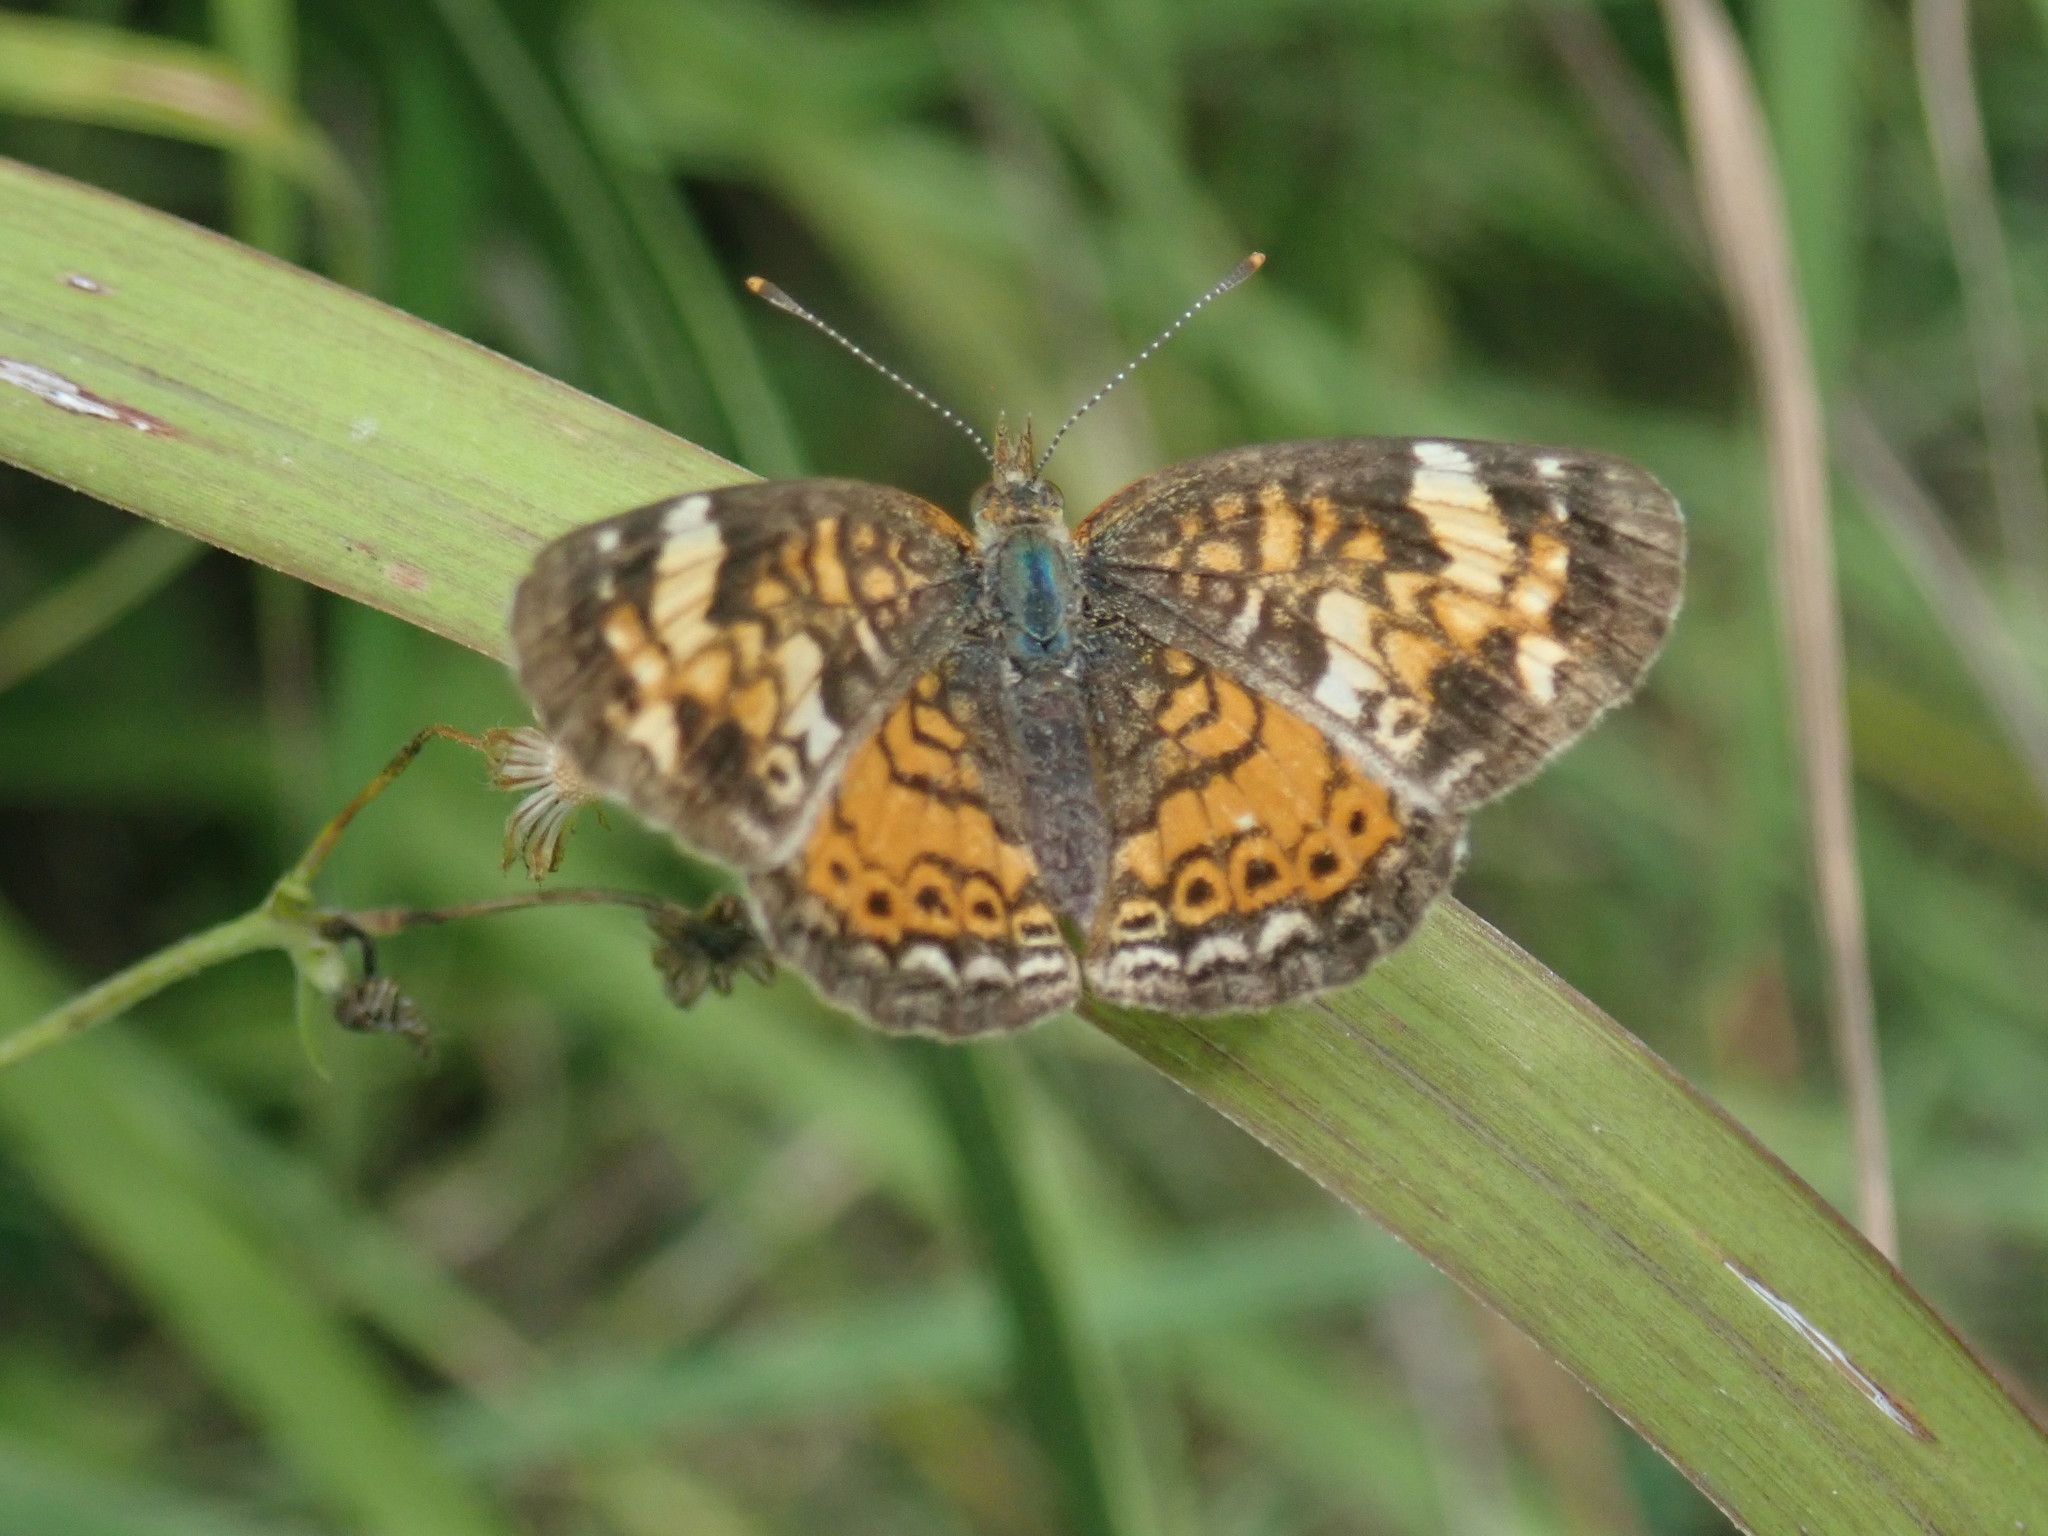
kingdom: Animalia
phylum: Arthropoda
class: Insecta
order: Lepidoptera
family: Nymphalidae
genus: Phyciodes
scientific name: Phyciodes tharos
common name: Pearl crescent
